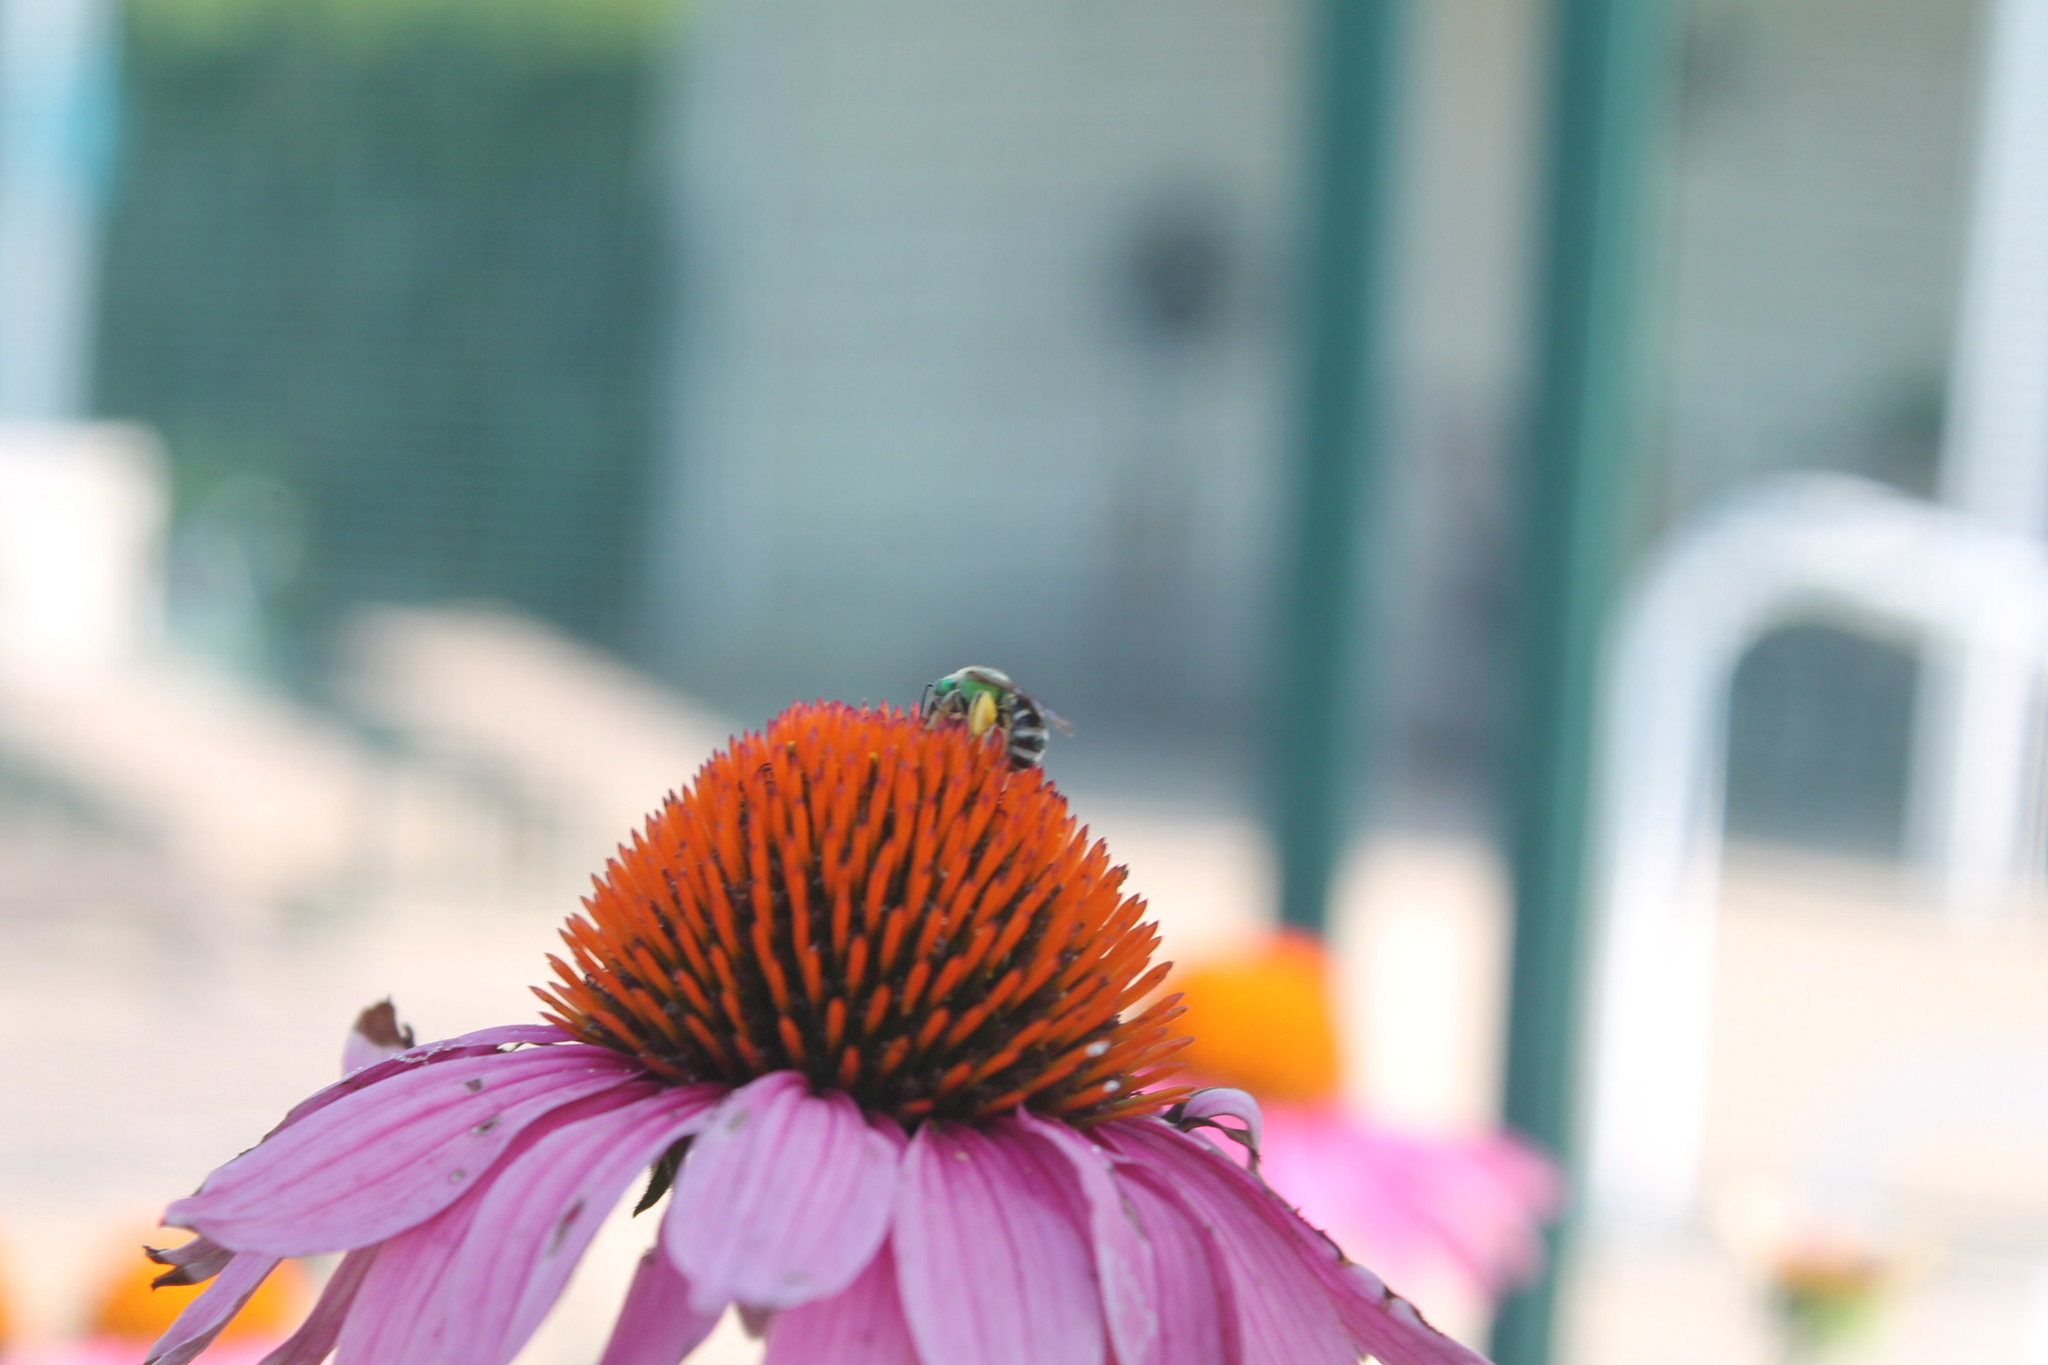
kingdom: Animalia
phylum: Arthropoda
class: Insecta
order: Hymenoptera
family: Halictidae
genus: Agapostemon
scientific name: Agapostemon virescens
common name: Bicolored striped sweat bee
